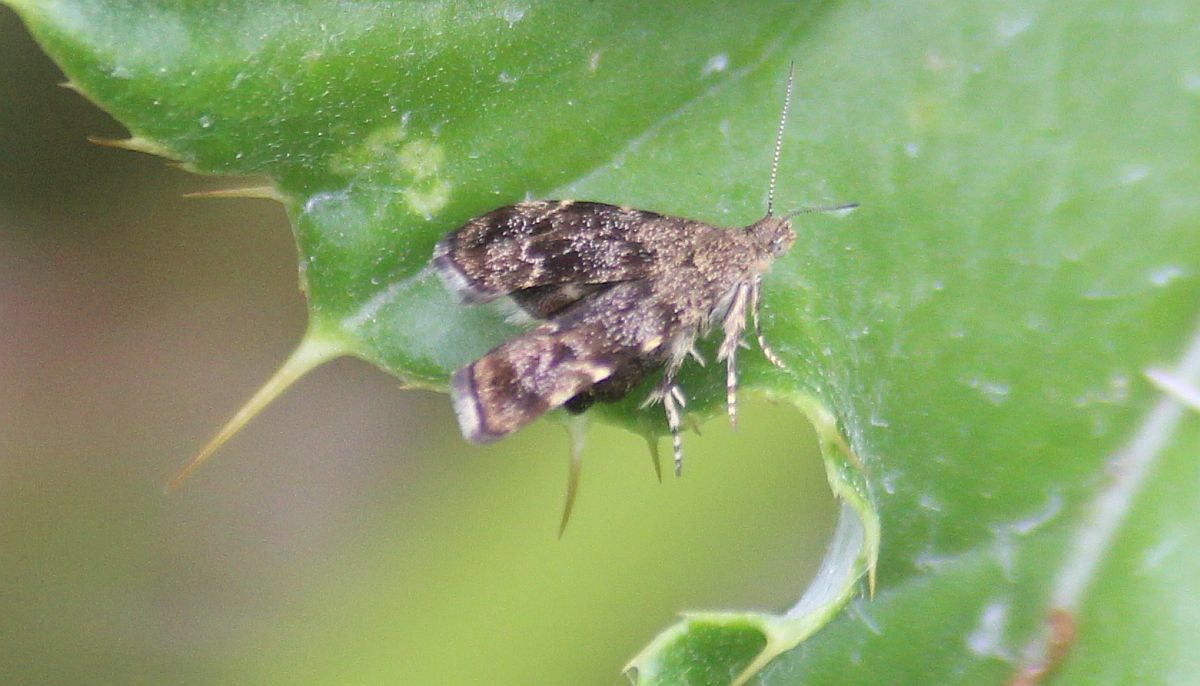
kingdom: Animalia
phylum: Arthropoda
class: Insecta
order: Lepidoptera
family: Choreutidae
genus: Anthophila
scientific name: Anthophila fabriciana
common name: Nettle-tap
